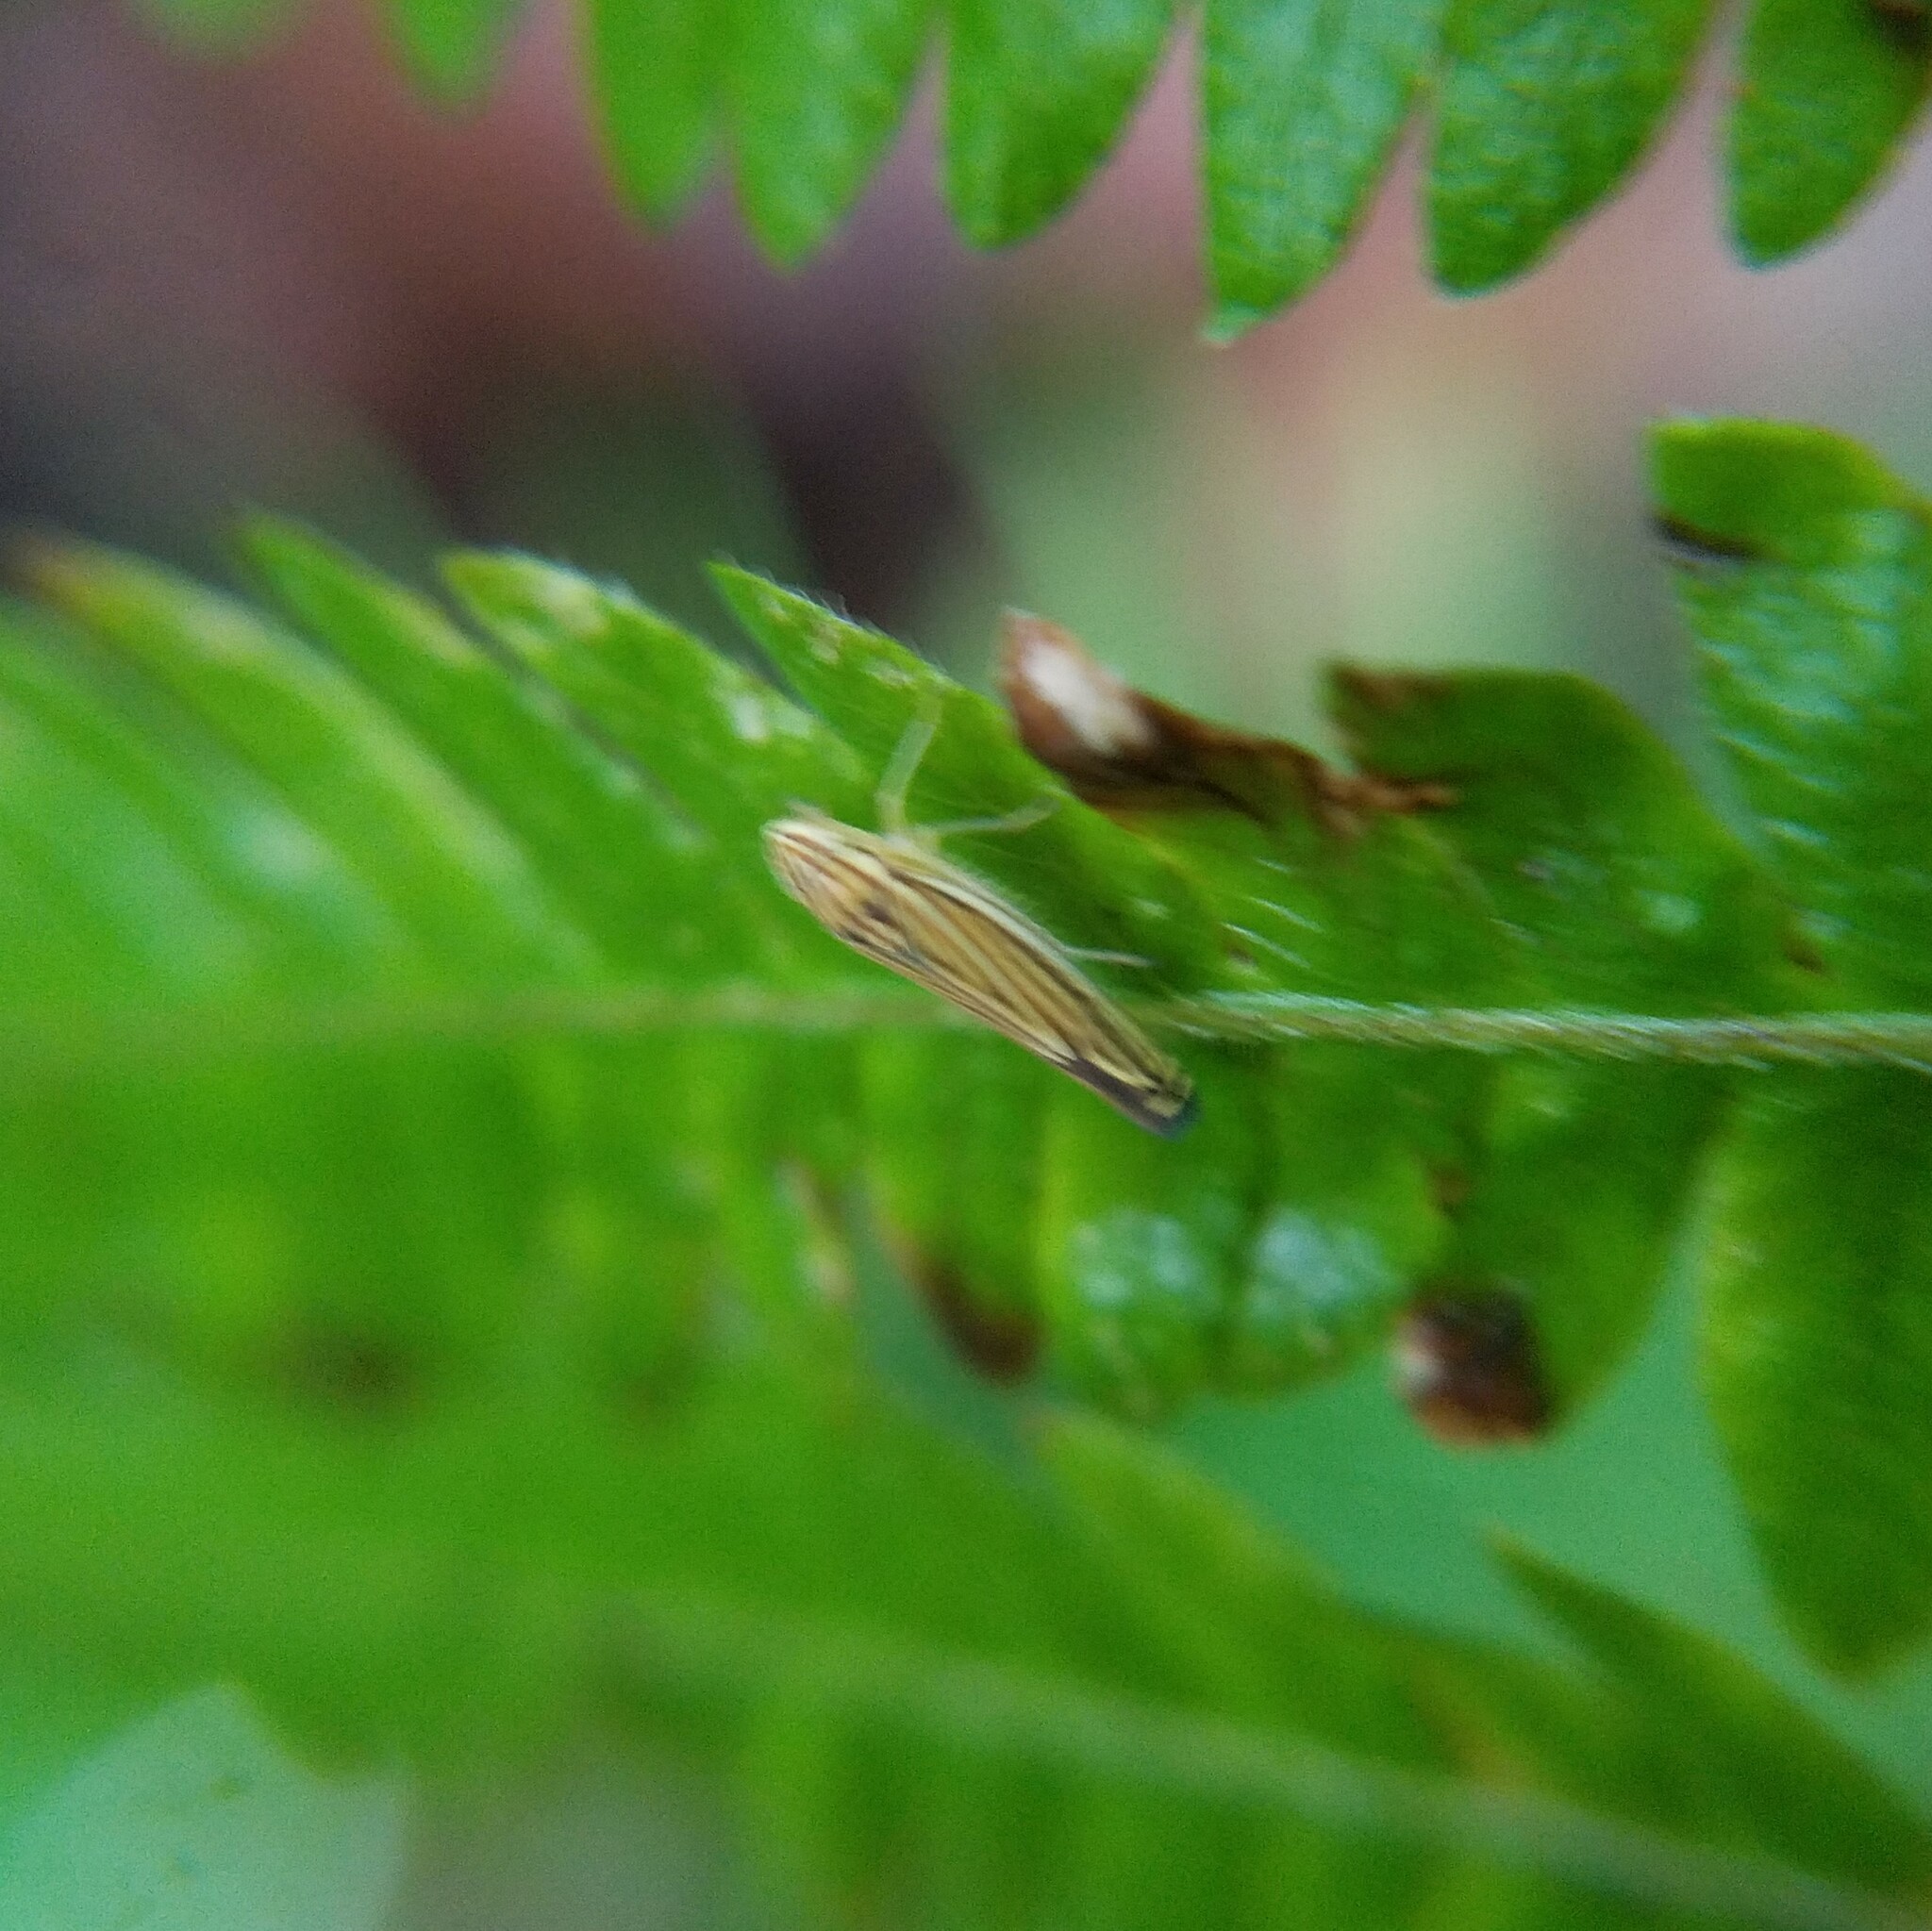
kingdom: Animalia
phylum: Arthropoda
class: Insecta
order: Hemiptera
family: Cicadellidae
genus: Sibovia
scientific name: Sibovia occatoria
